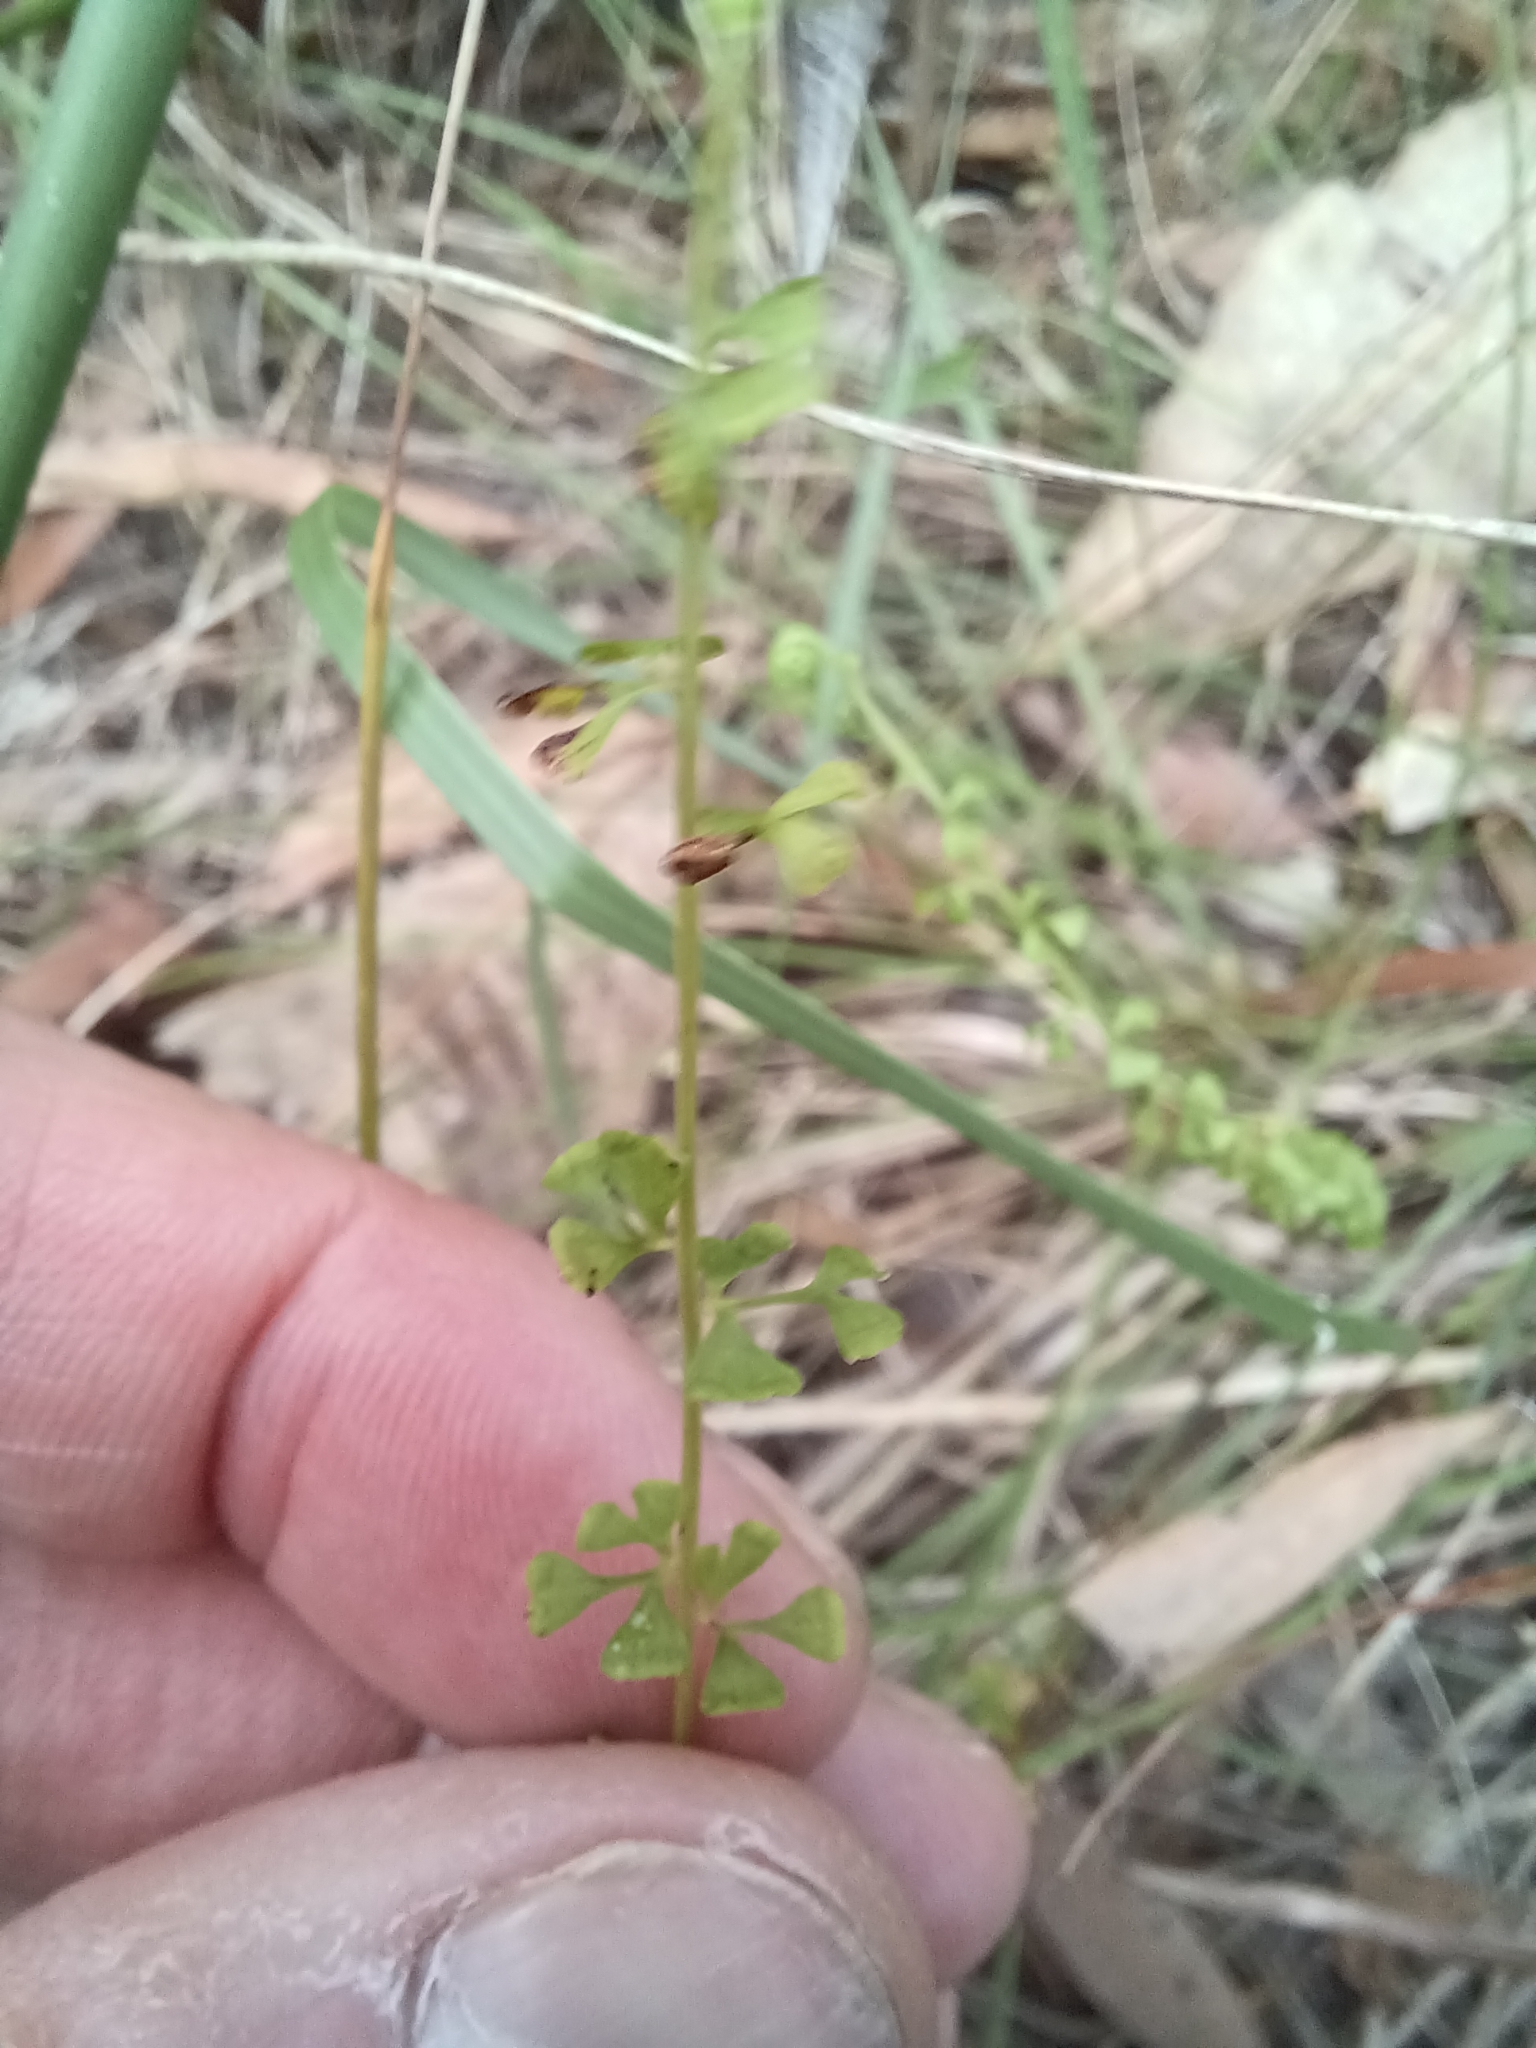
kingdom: Plantae
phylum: Tracheophyta
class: Polypodiopsida
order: Polypodiales
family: Lindsaeaceae
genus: Lindsaea
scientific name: Lindsaea incisa
